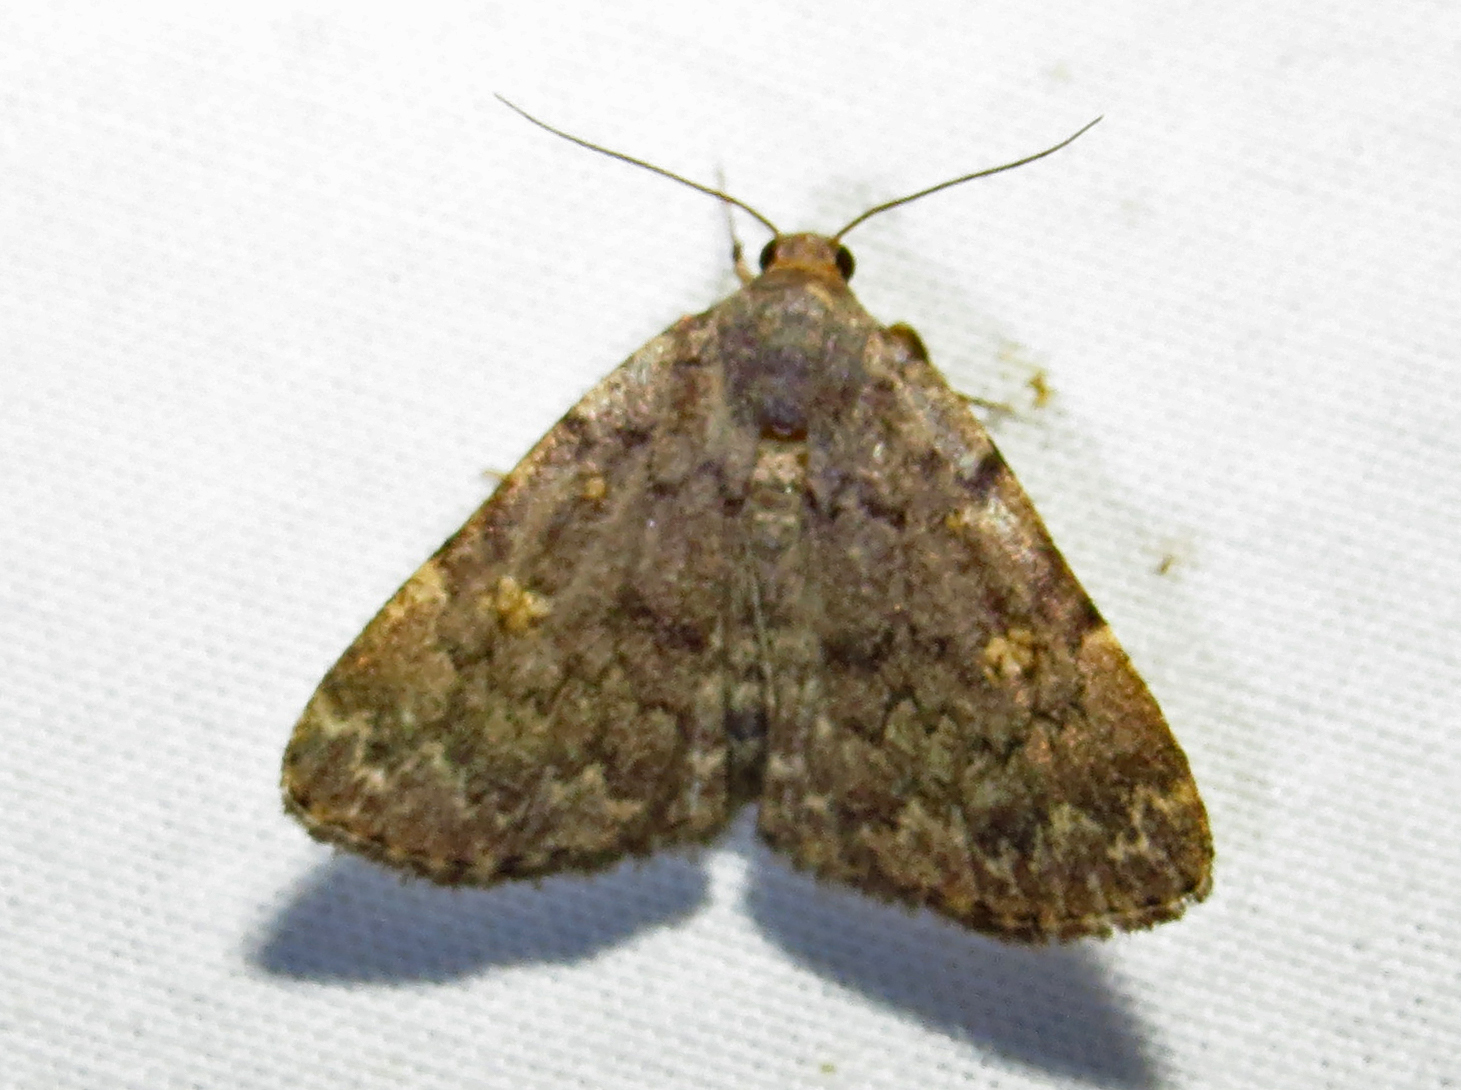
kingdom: Animalia
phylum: Arthropoda
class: Insecta
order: Lepidoptera
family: Erebidae
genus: Idia
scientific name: Idia aemula
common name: Common idia moth
